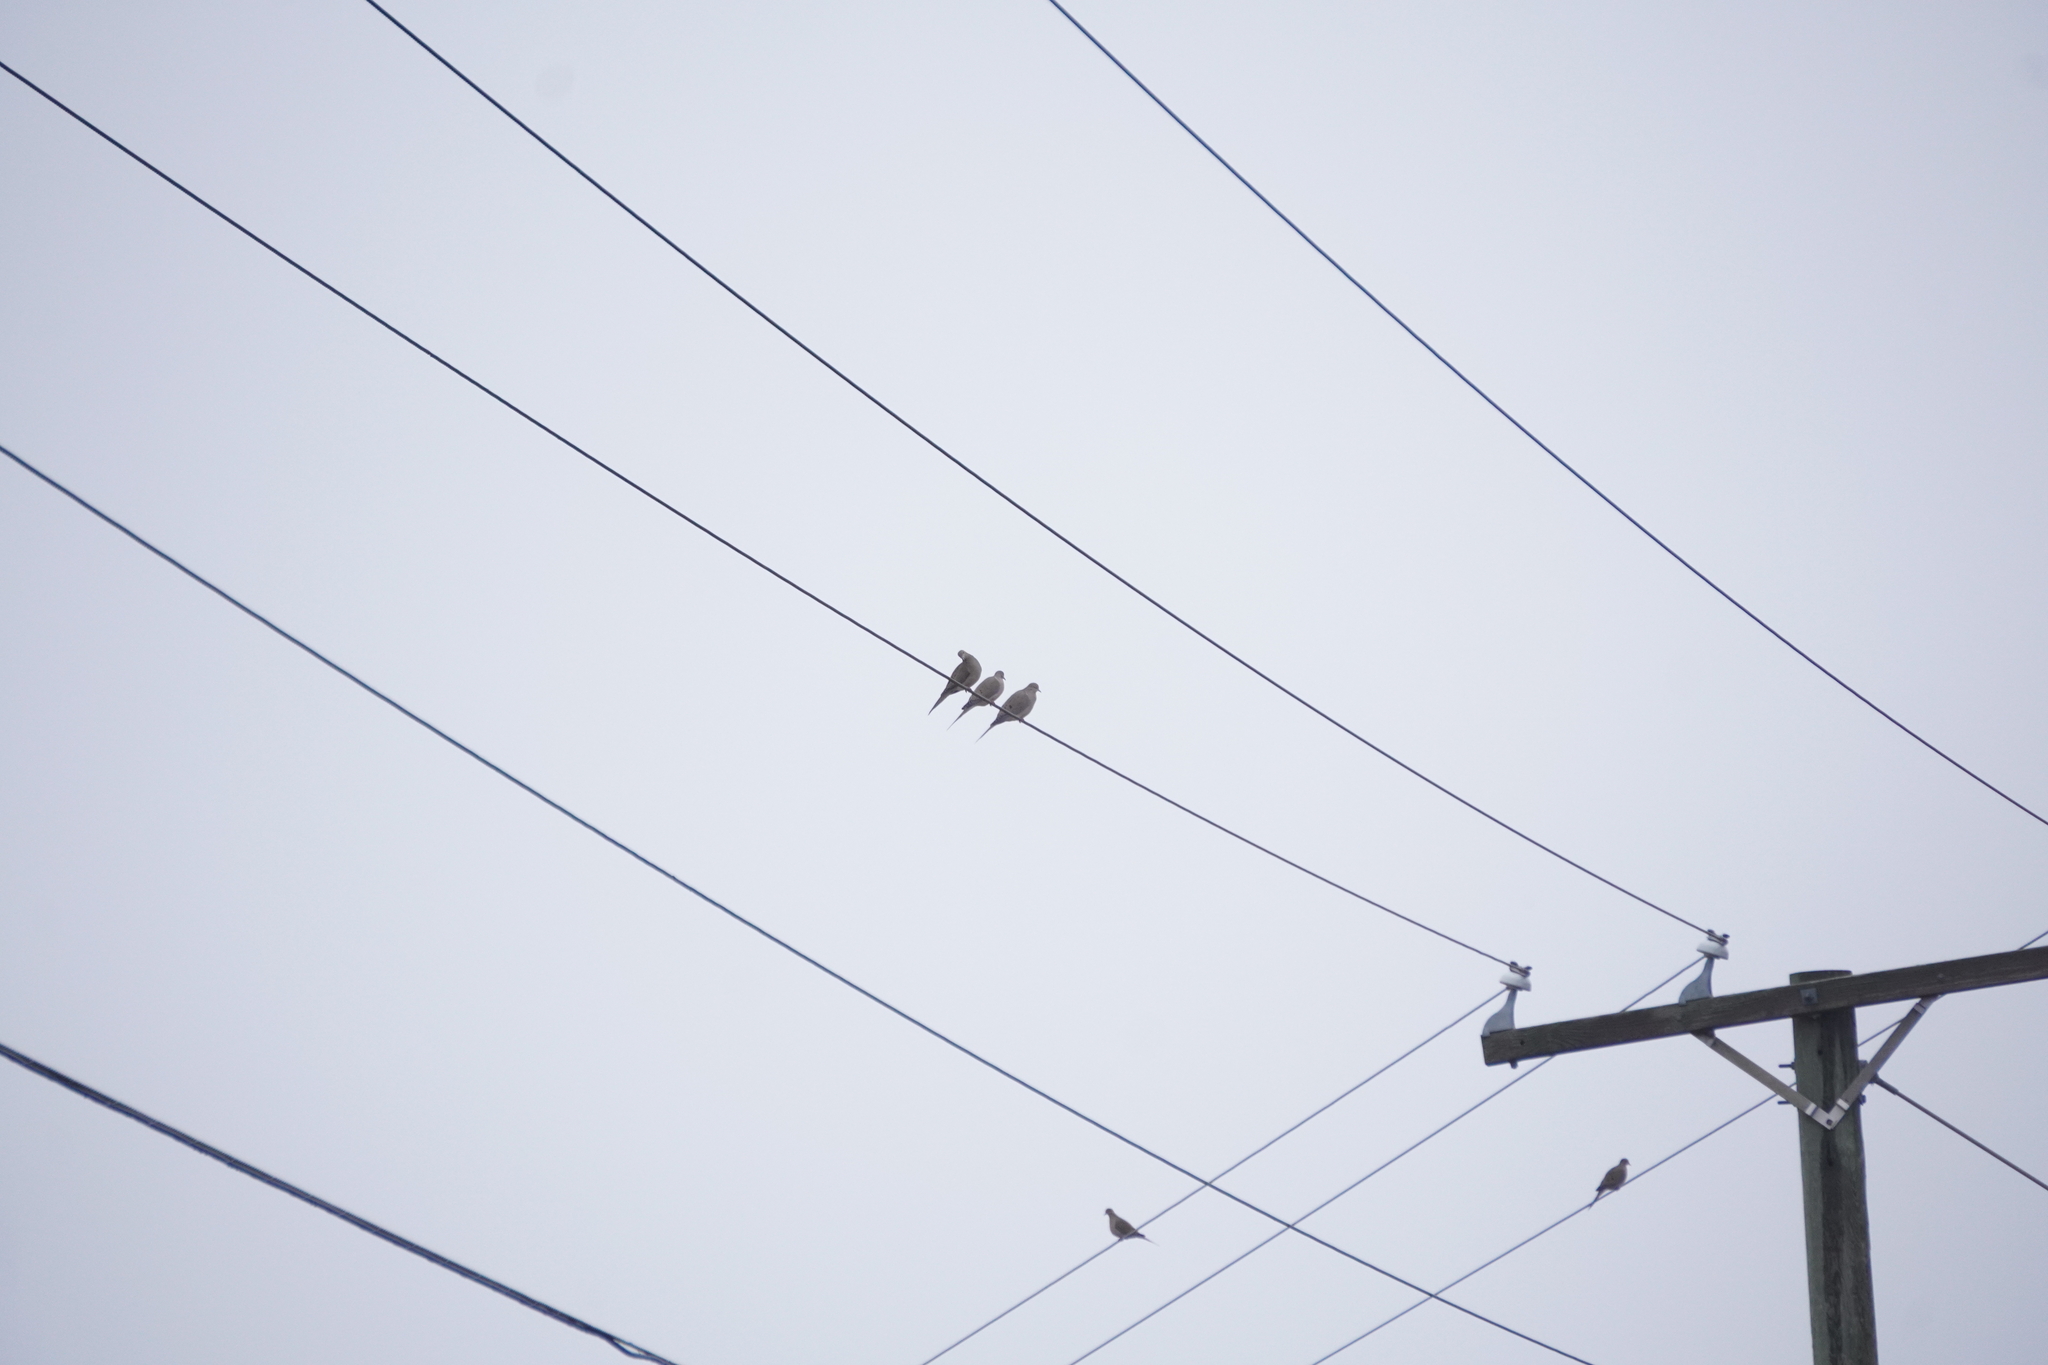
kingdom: Animalia
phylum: Chordata
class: Aves
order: Columbiformes
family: Columbidae
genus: Zenaida
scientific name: Zenaida macroura
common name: Mourning dove
